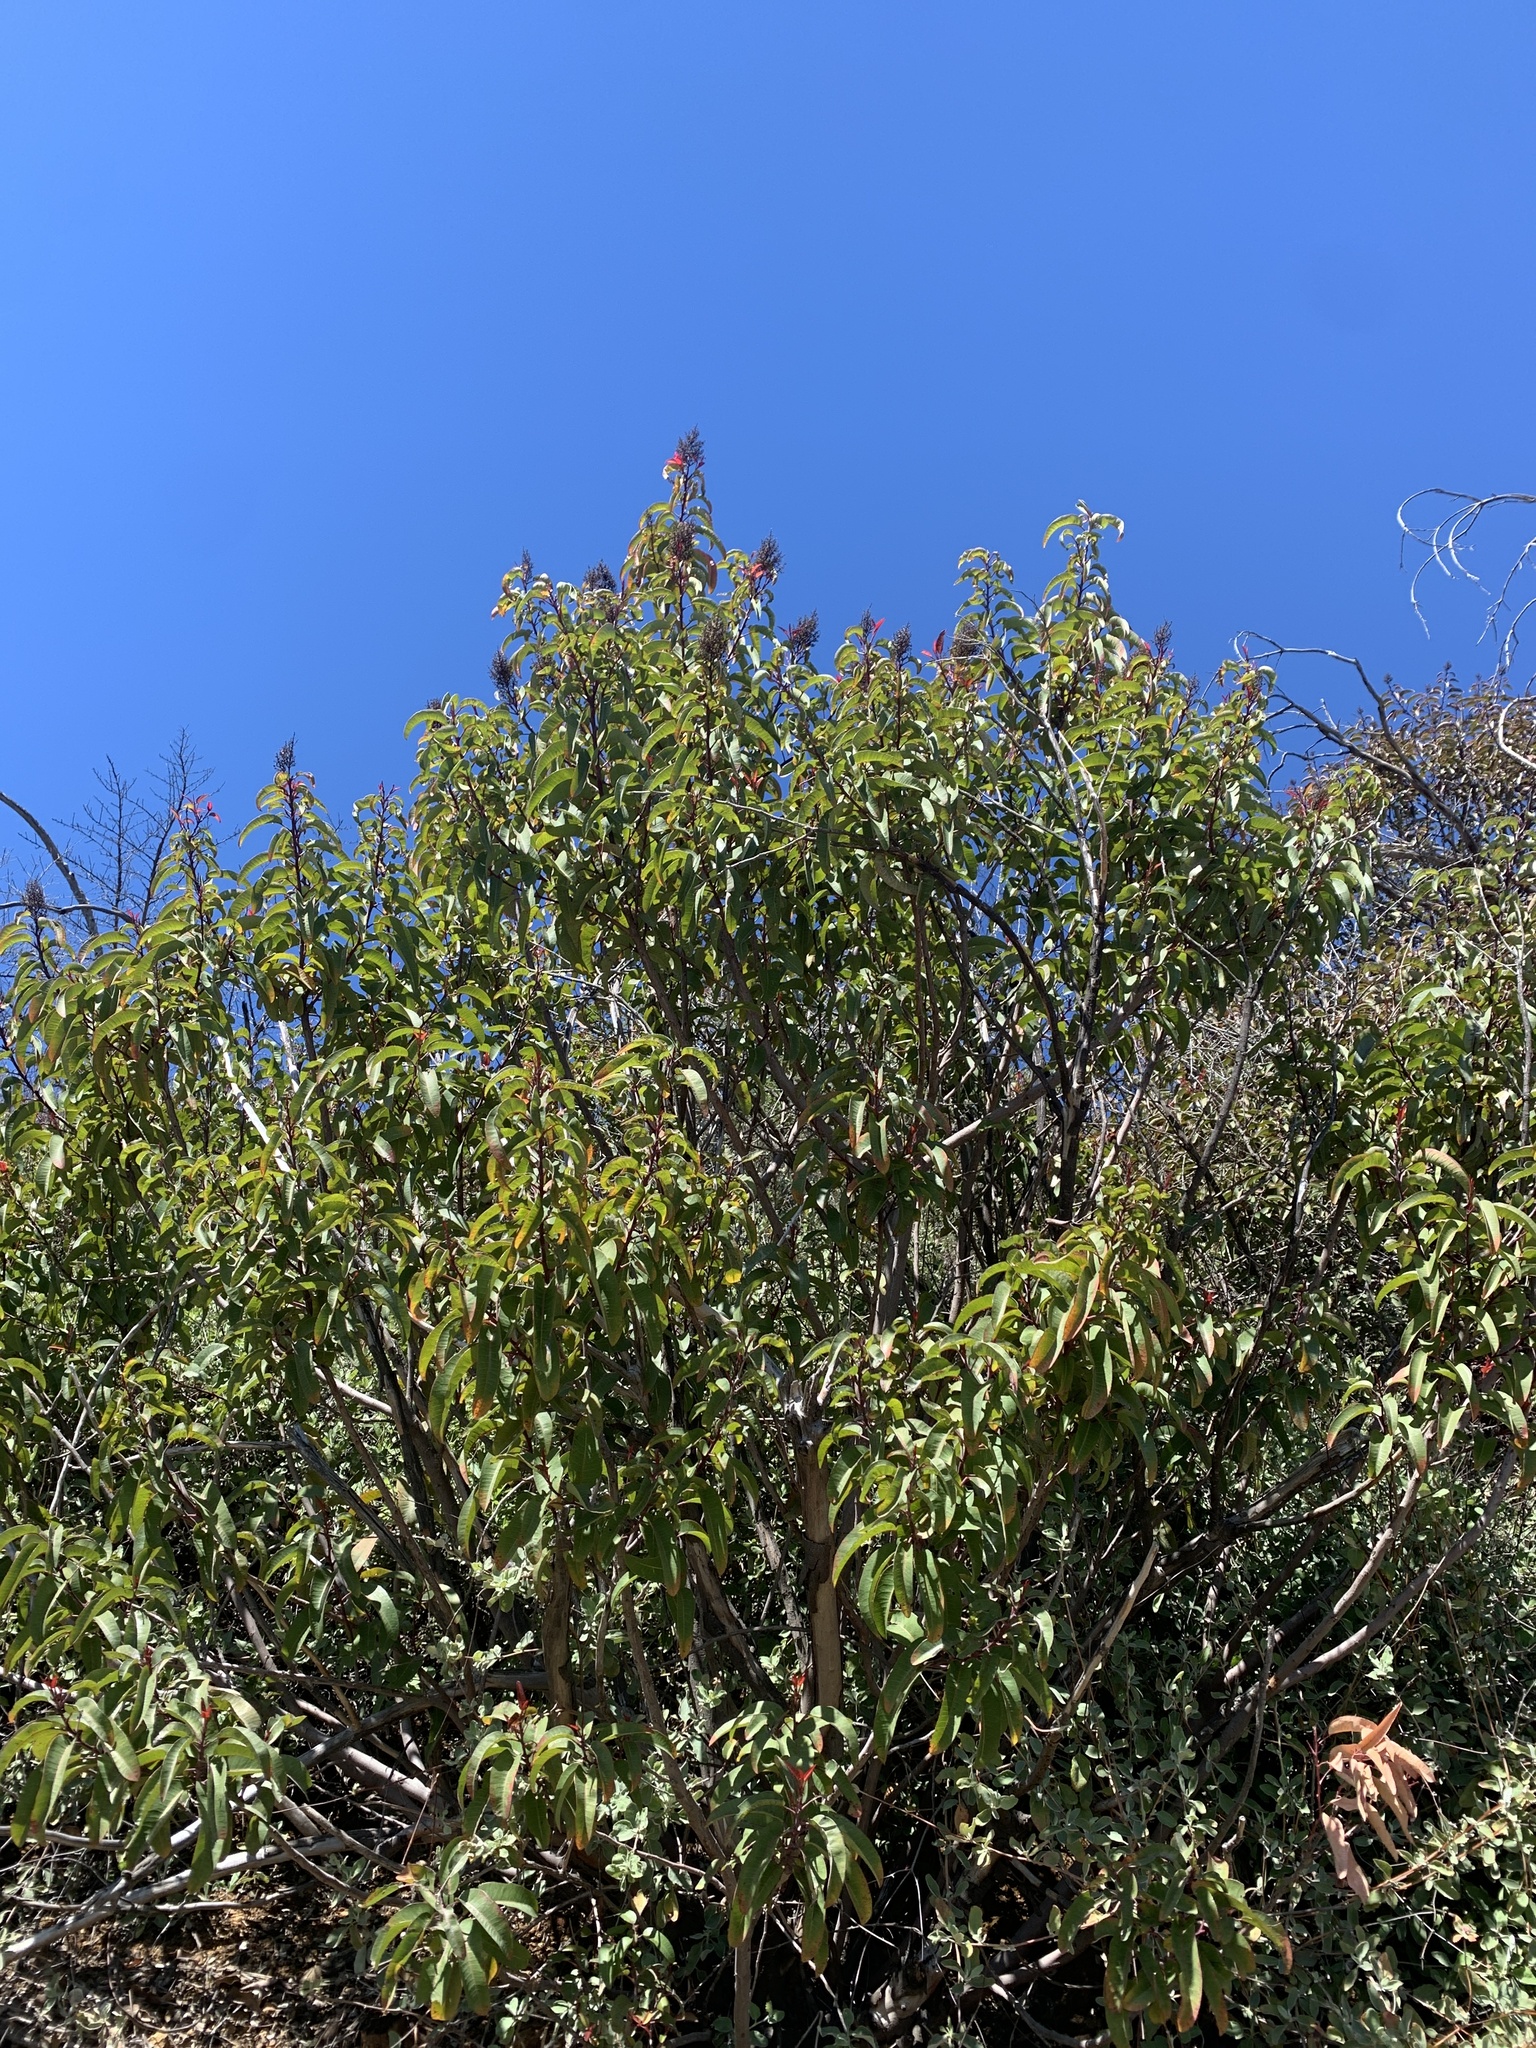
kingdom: Plantae
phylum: Tracheophyta
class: Magnoliopsida
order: Sapindales
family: Anacardiaceae
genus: Malosma
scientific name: Malosma laurina
